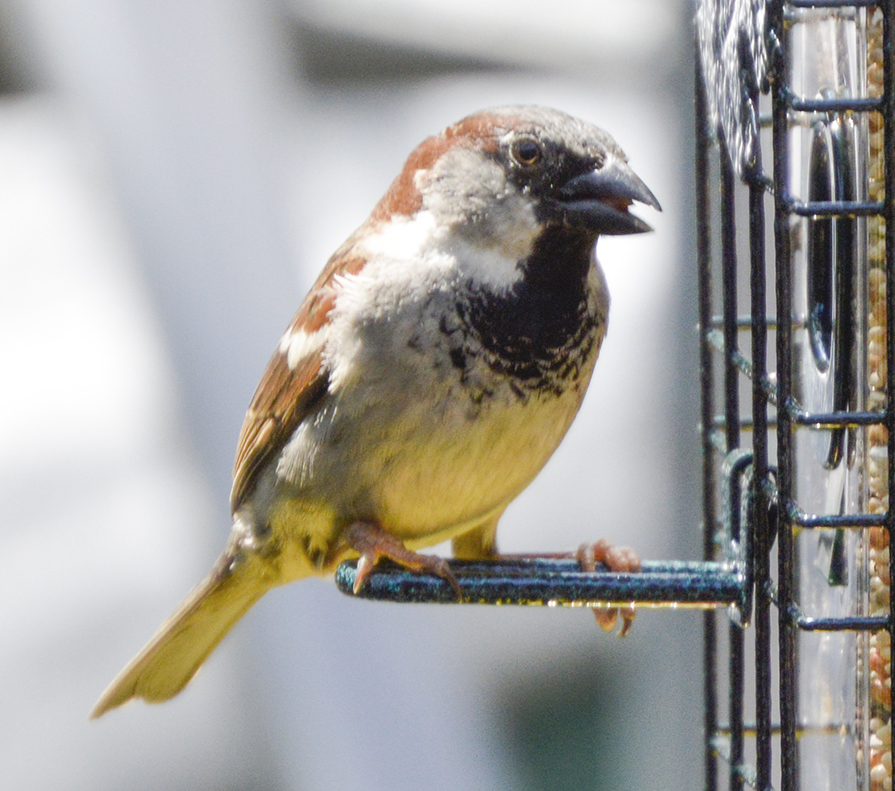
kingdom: Animalia
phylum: Chordata
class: Aves
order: Passeriformes
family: Passeridae
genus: Passer
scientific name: Passer domesticus
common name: House sparrow
